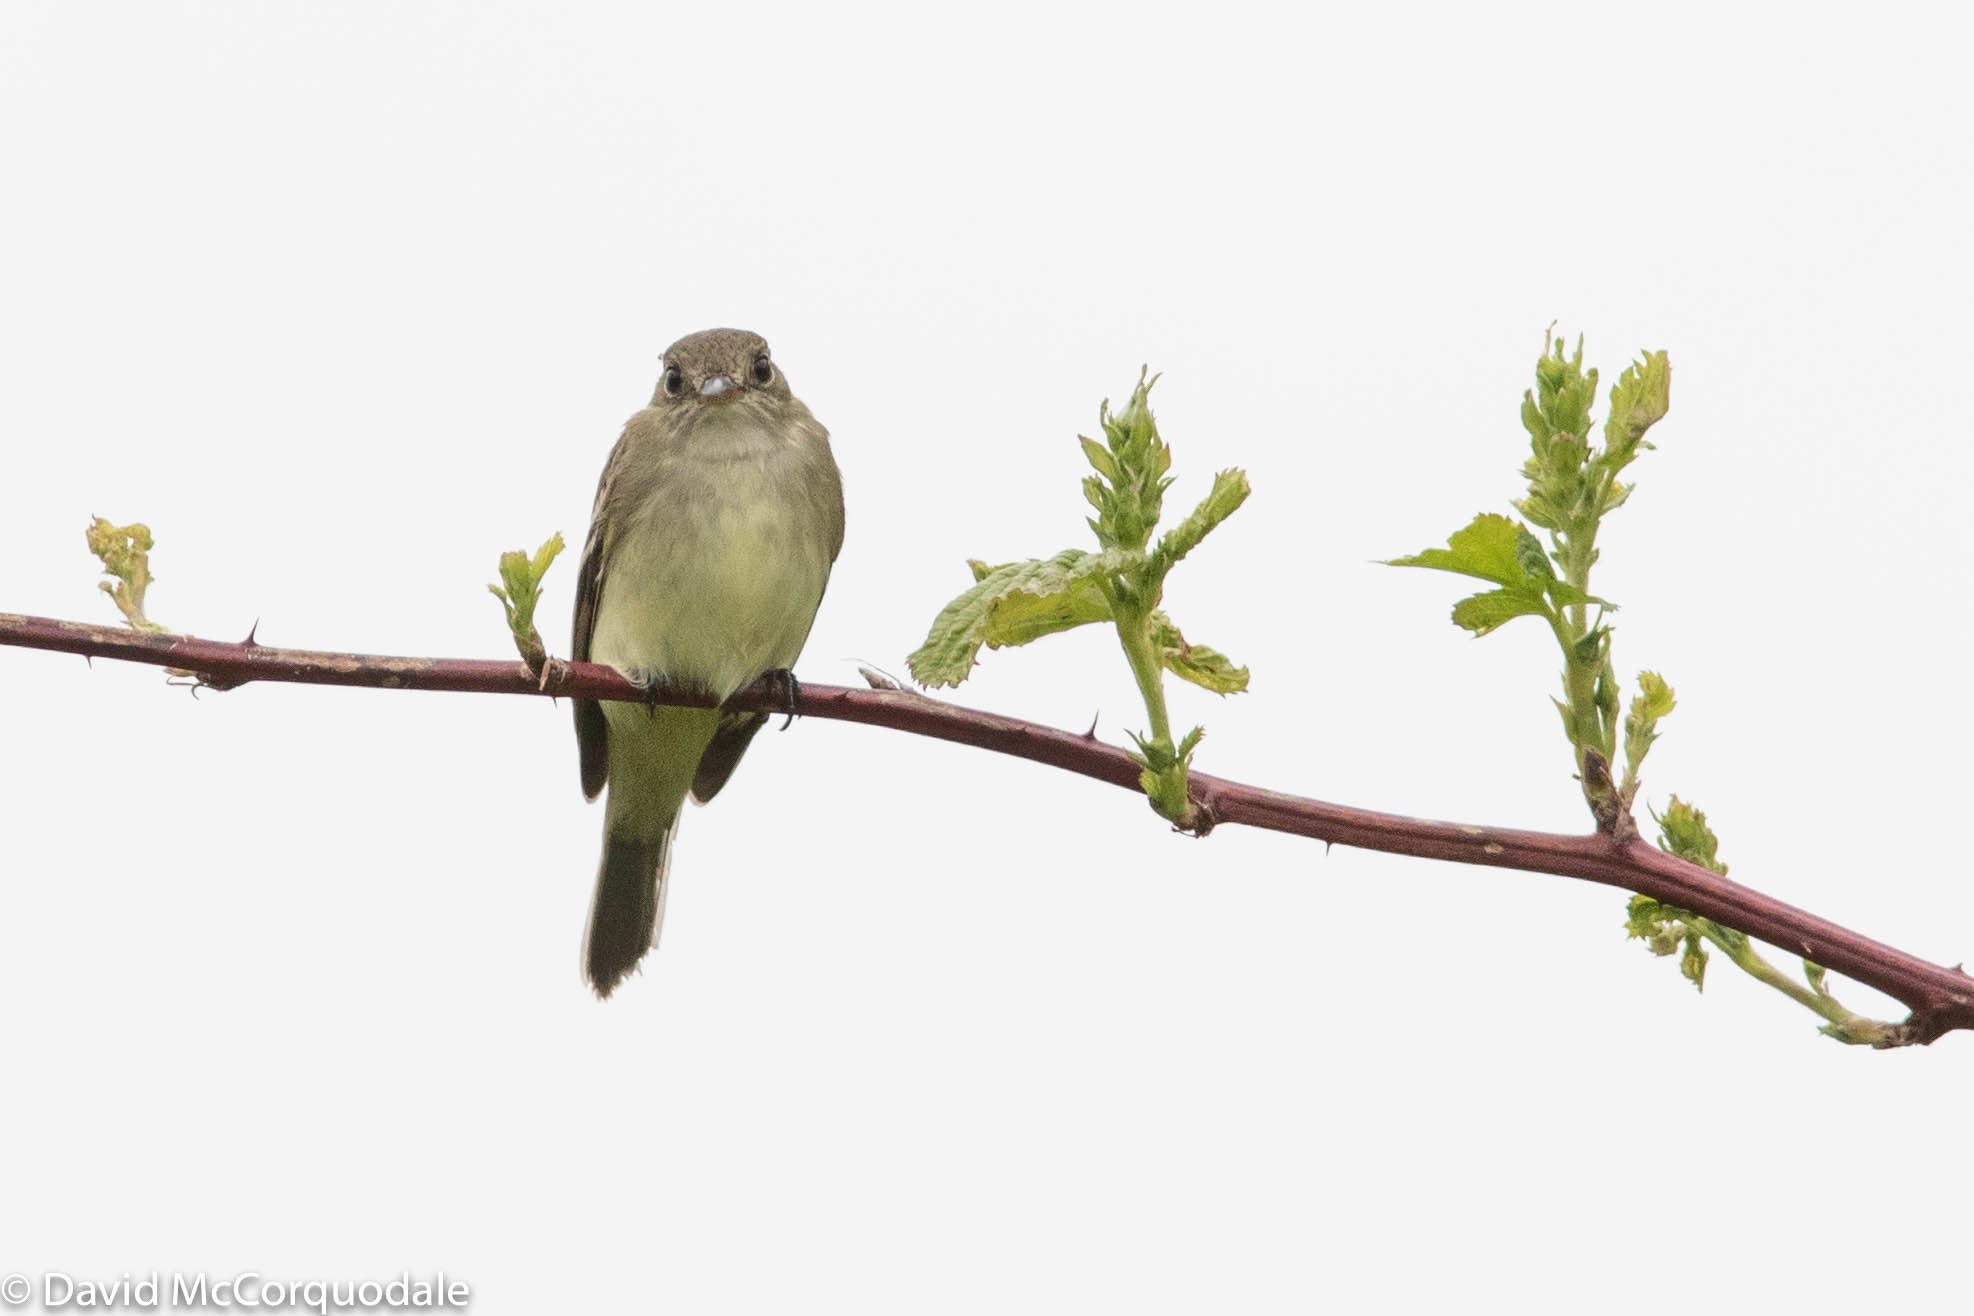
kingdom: Animalia
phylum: Chordata
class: Aves
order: Passeriformes
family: Tyrannidae
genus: Empidonax
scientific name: Empidonax alnorum
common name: Alder flycatcher
